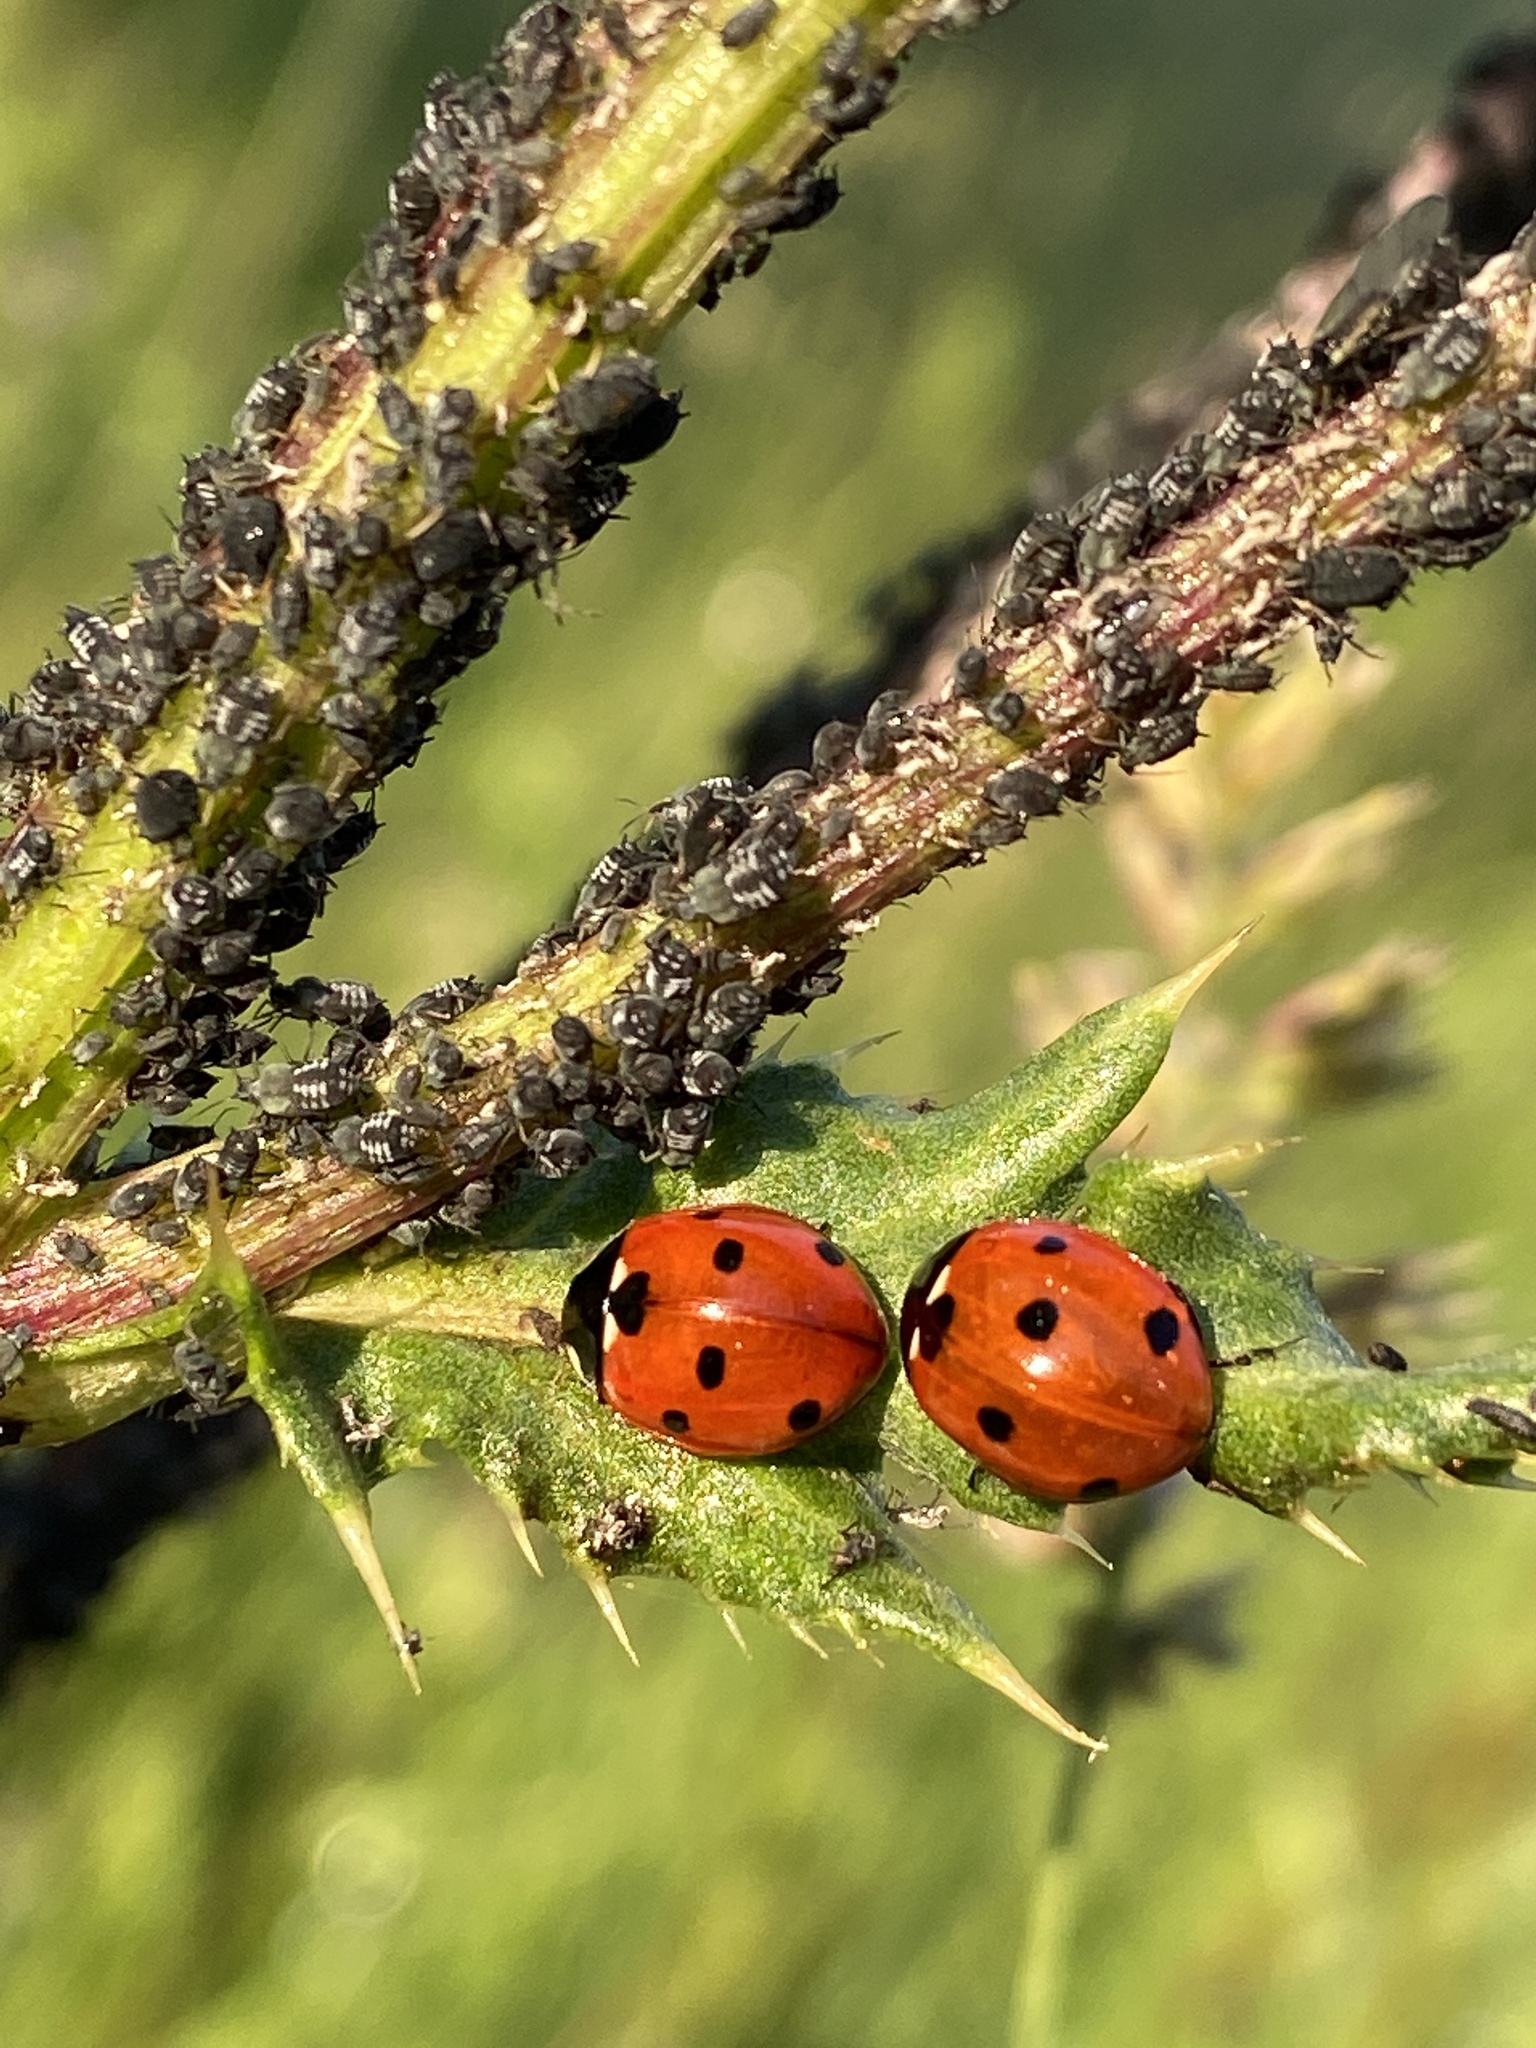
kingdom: Animalia
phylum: Arthropoda
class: Insecta
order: Coleoptera
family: Coccinellidae
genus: Coccinella
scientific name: Coccinella septempunctata
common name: Sevenspotted lady beetle
